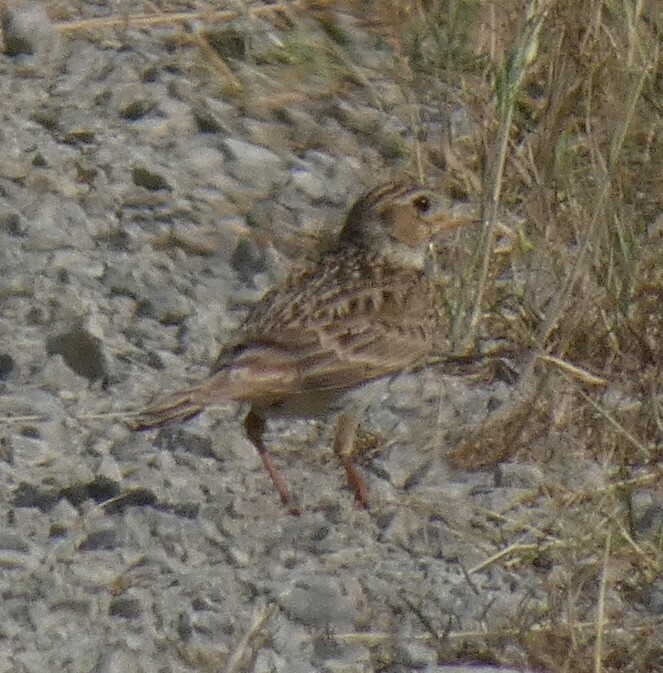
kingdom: Animalia
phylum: Chordata
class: Aves
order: Passeriformes
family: Alaudidae
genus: Alauda
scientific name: Alauda arvensis
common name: Eurasian skylark
